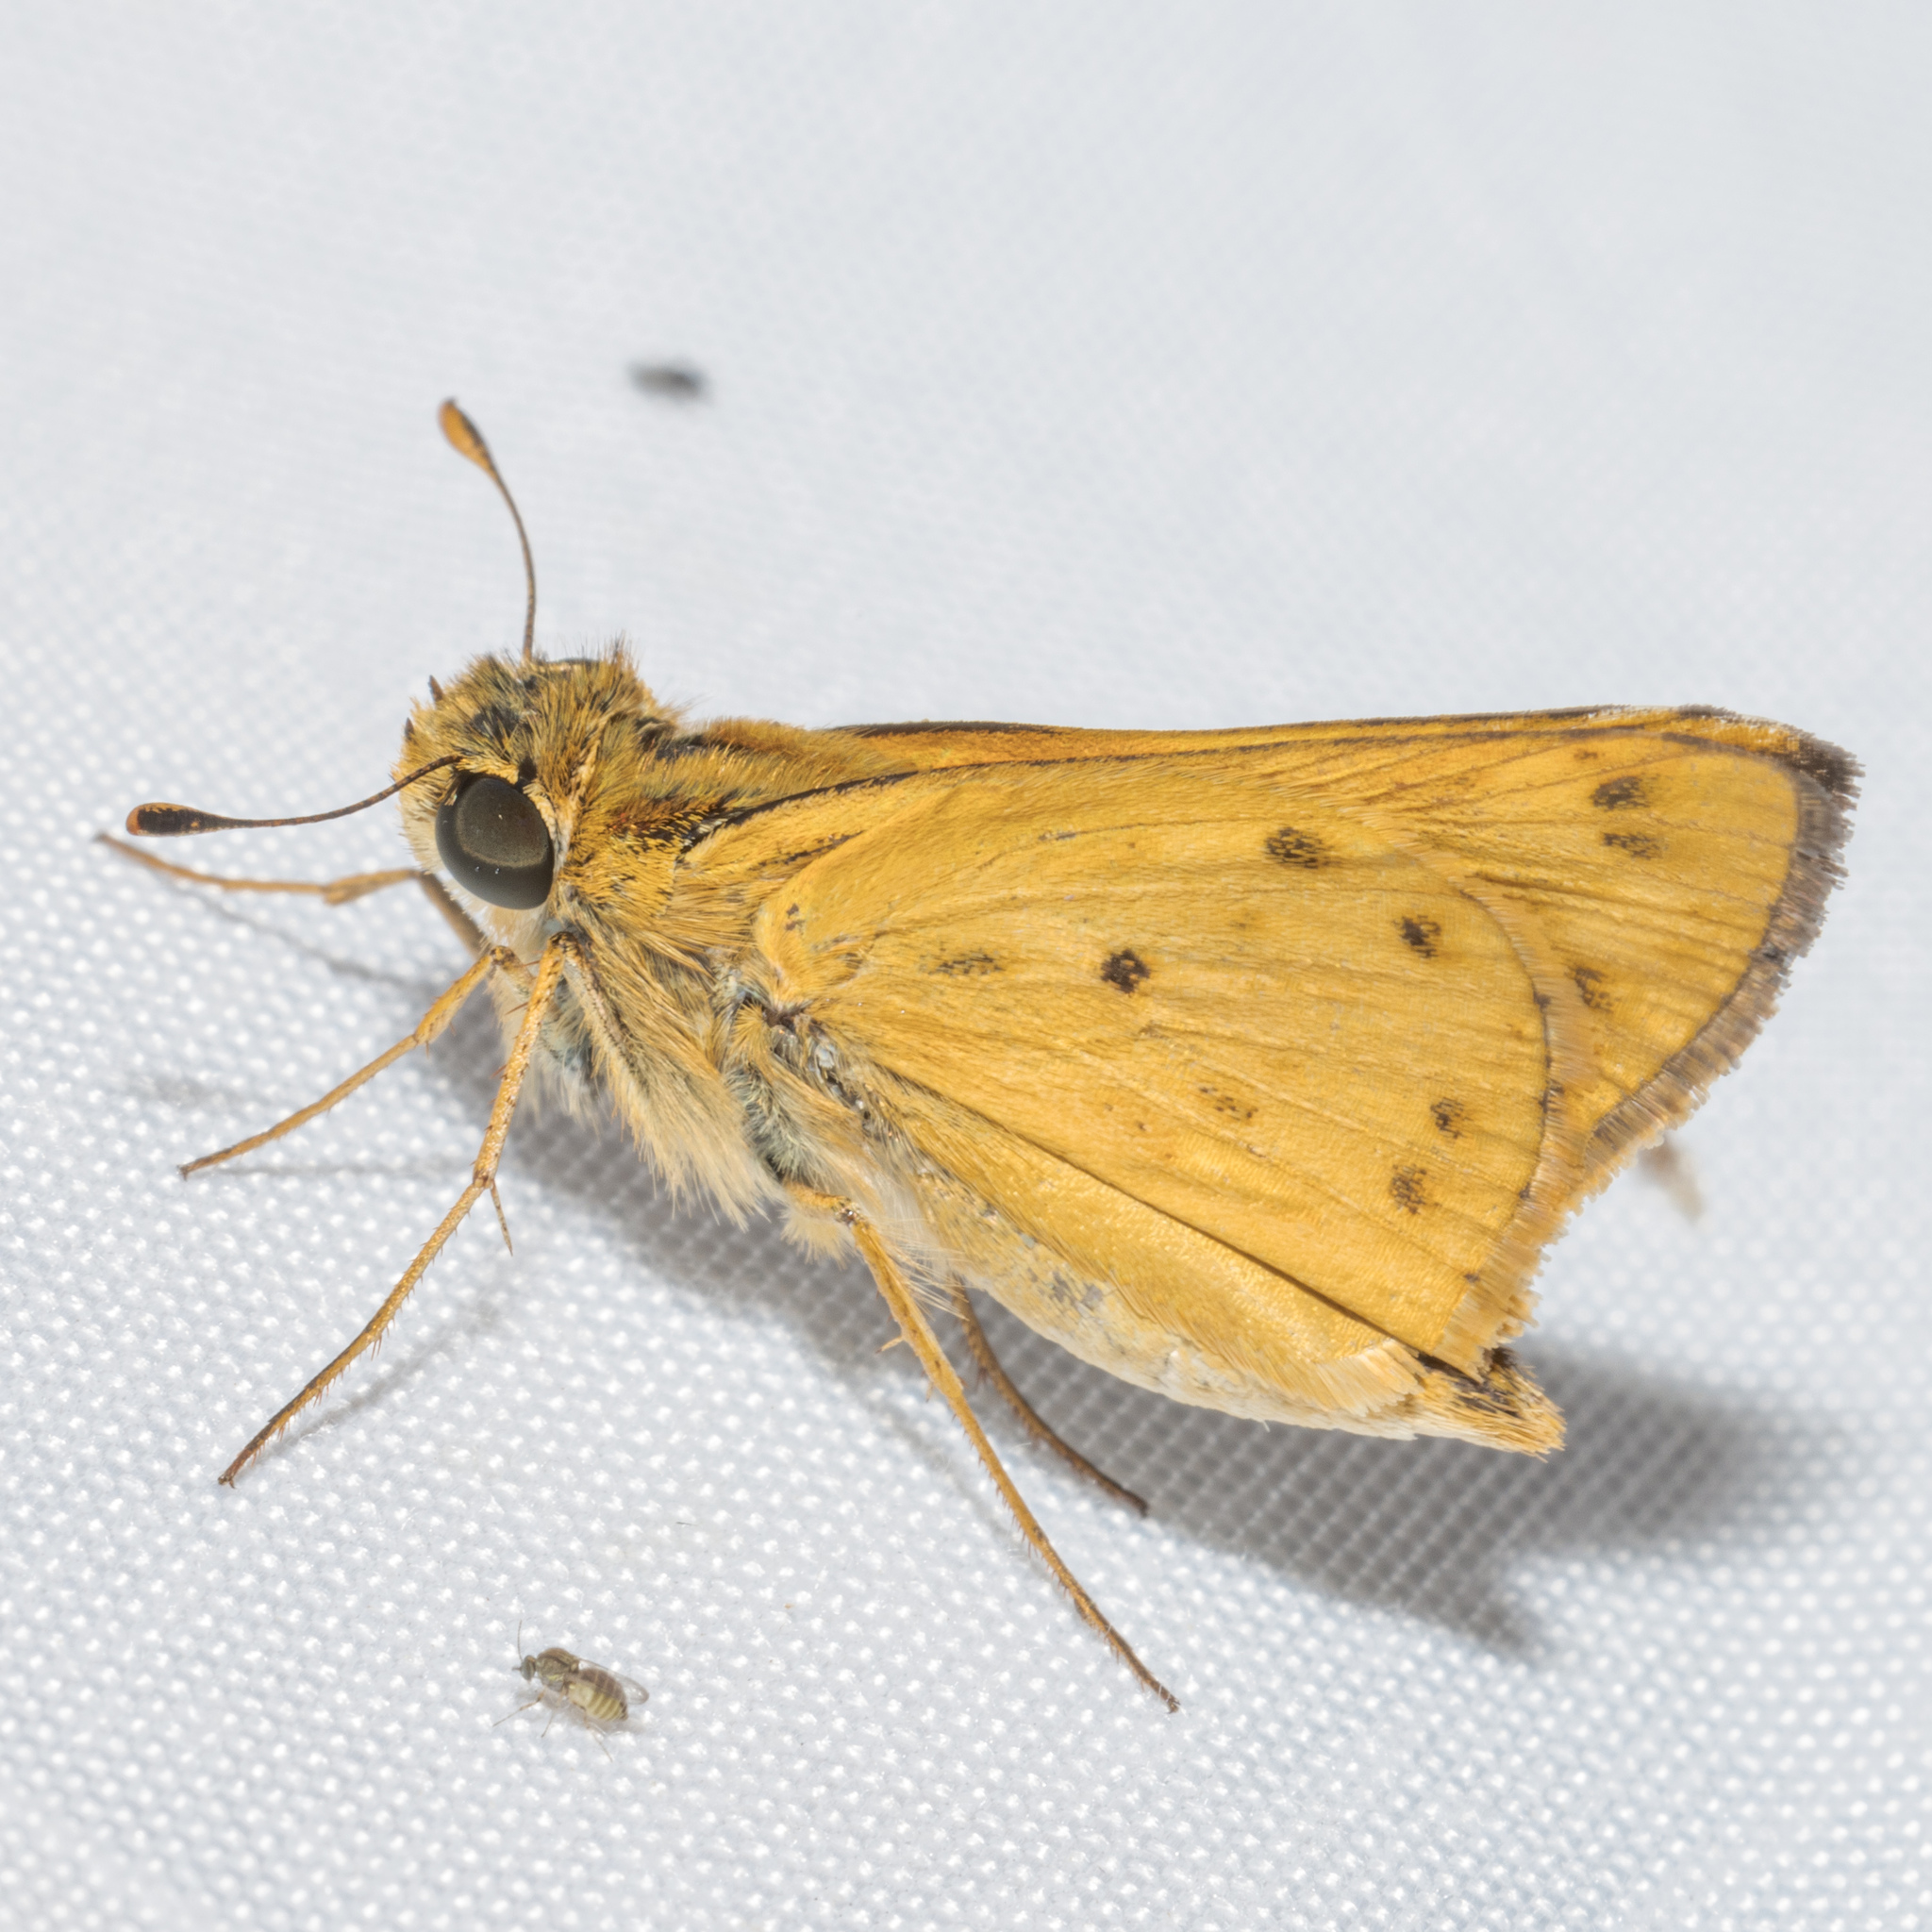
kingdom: Animalia
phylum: Arthropoda
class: Insecta
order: Lepidoptera
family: Hesperiidae
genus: Hylephila
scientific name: Hylephila phyleus
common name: Fiery skipper
